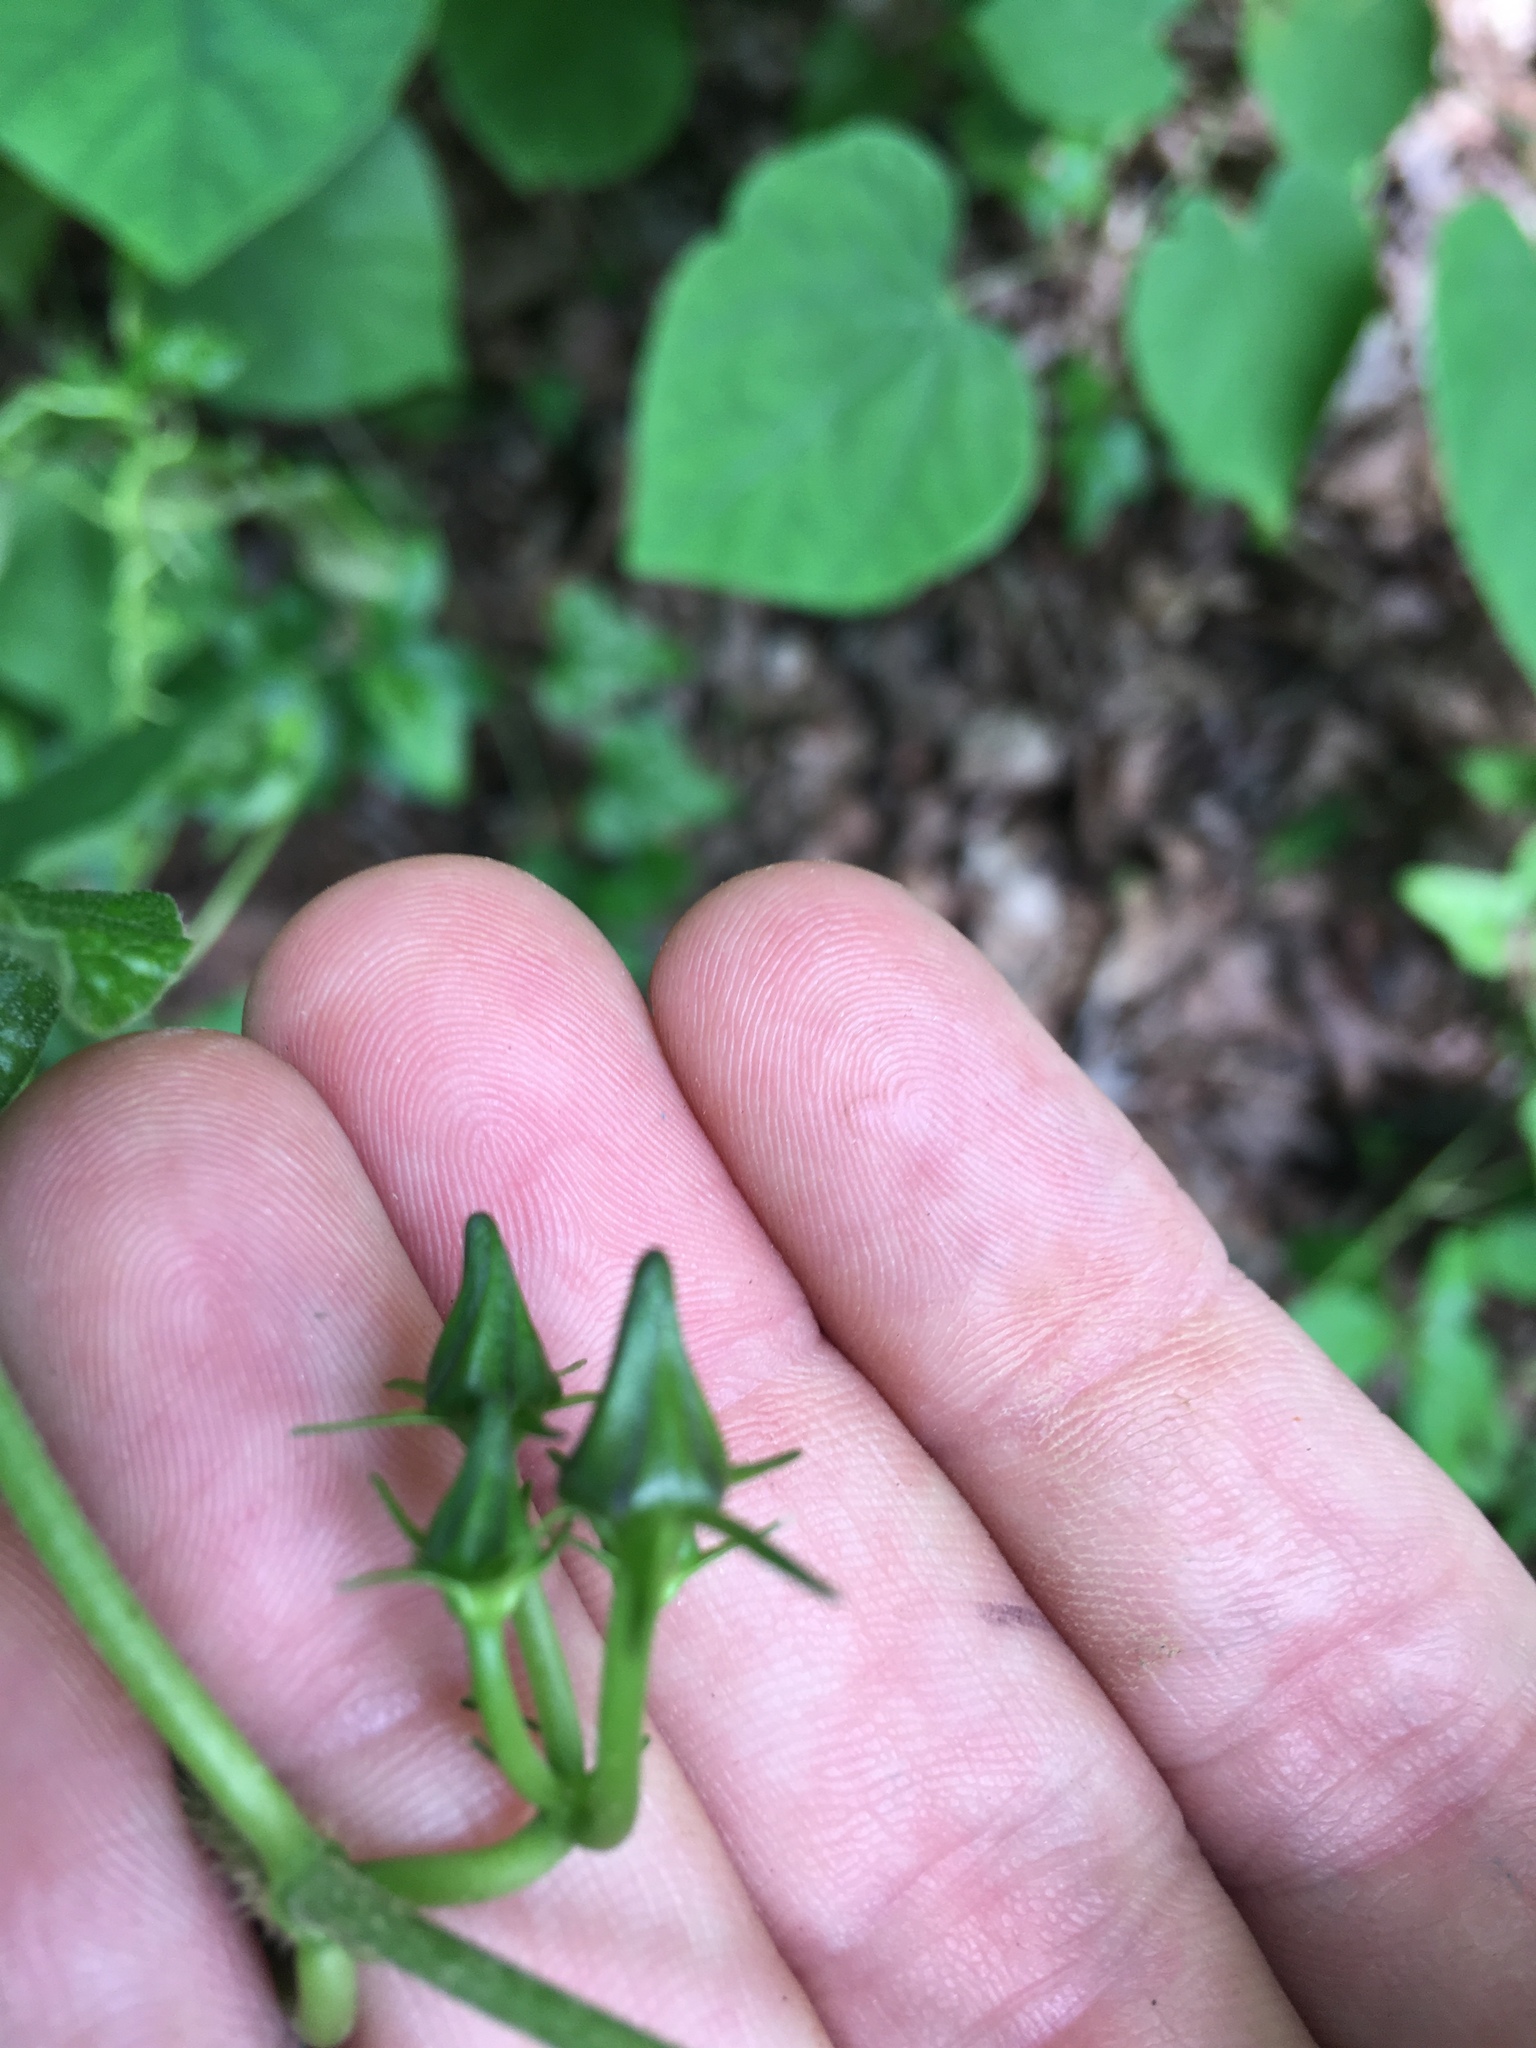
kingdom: Plantae
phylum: Tracheophyta
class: Magnoliopsida
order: Gentianales
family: Apocynaceae
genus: Gonolobus
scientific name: Gonolobus suberosus
